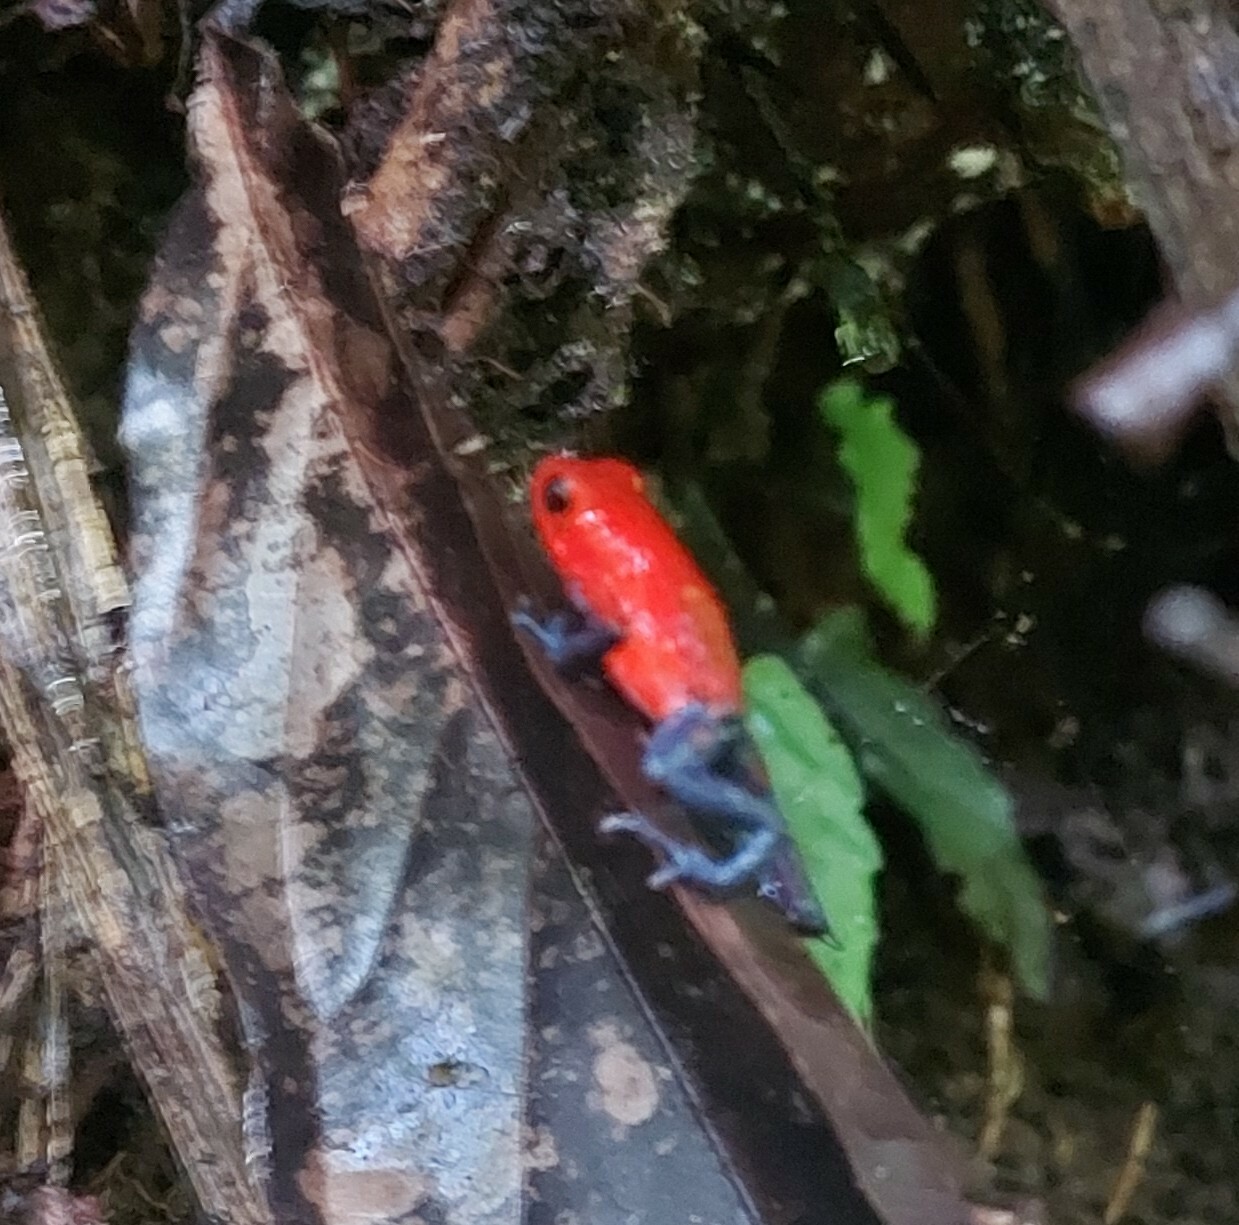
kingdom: Animalia
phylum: Chordata
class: Amphibia
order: Anura
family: Dendrobatidae
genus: Oophaga
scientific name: Oophaga pumilio
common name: Flaming poison frog
